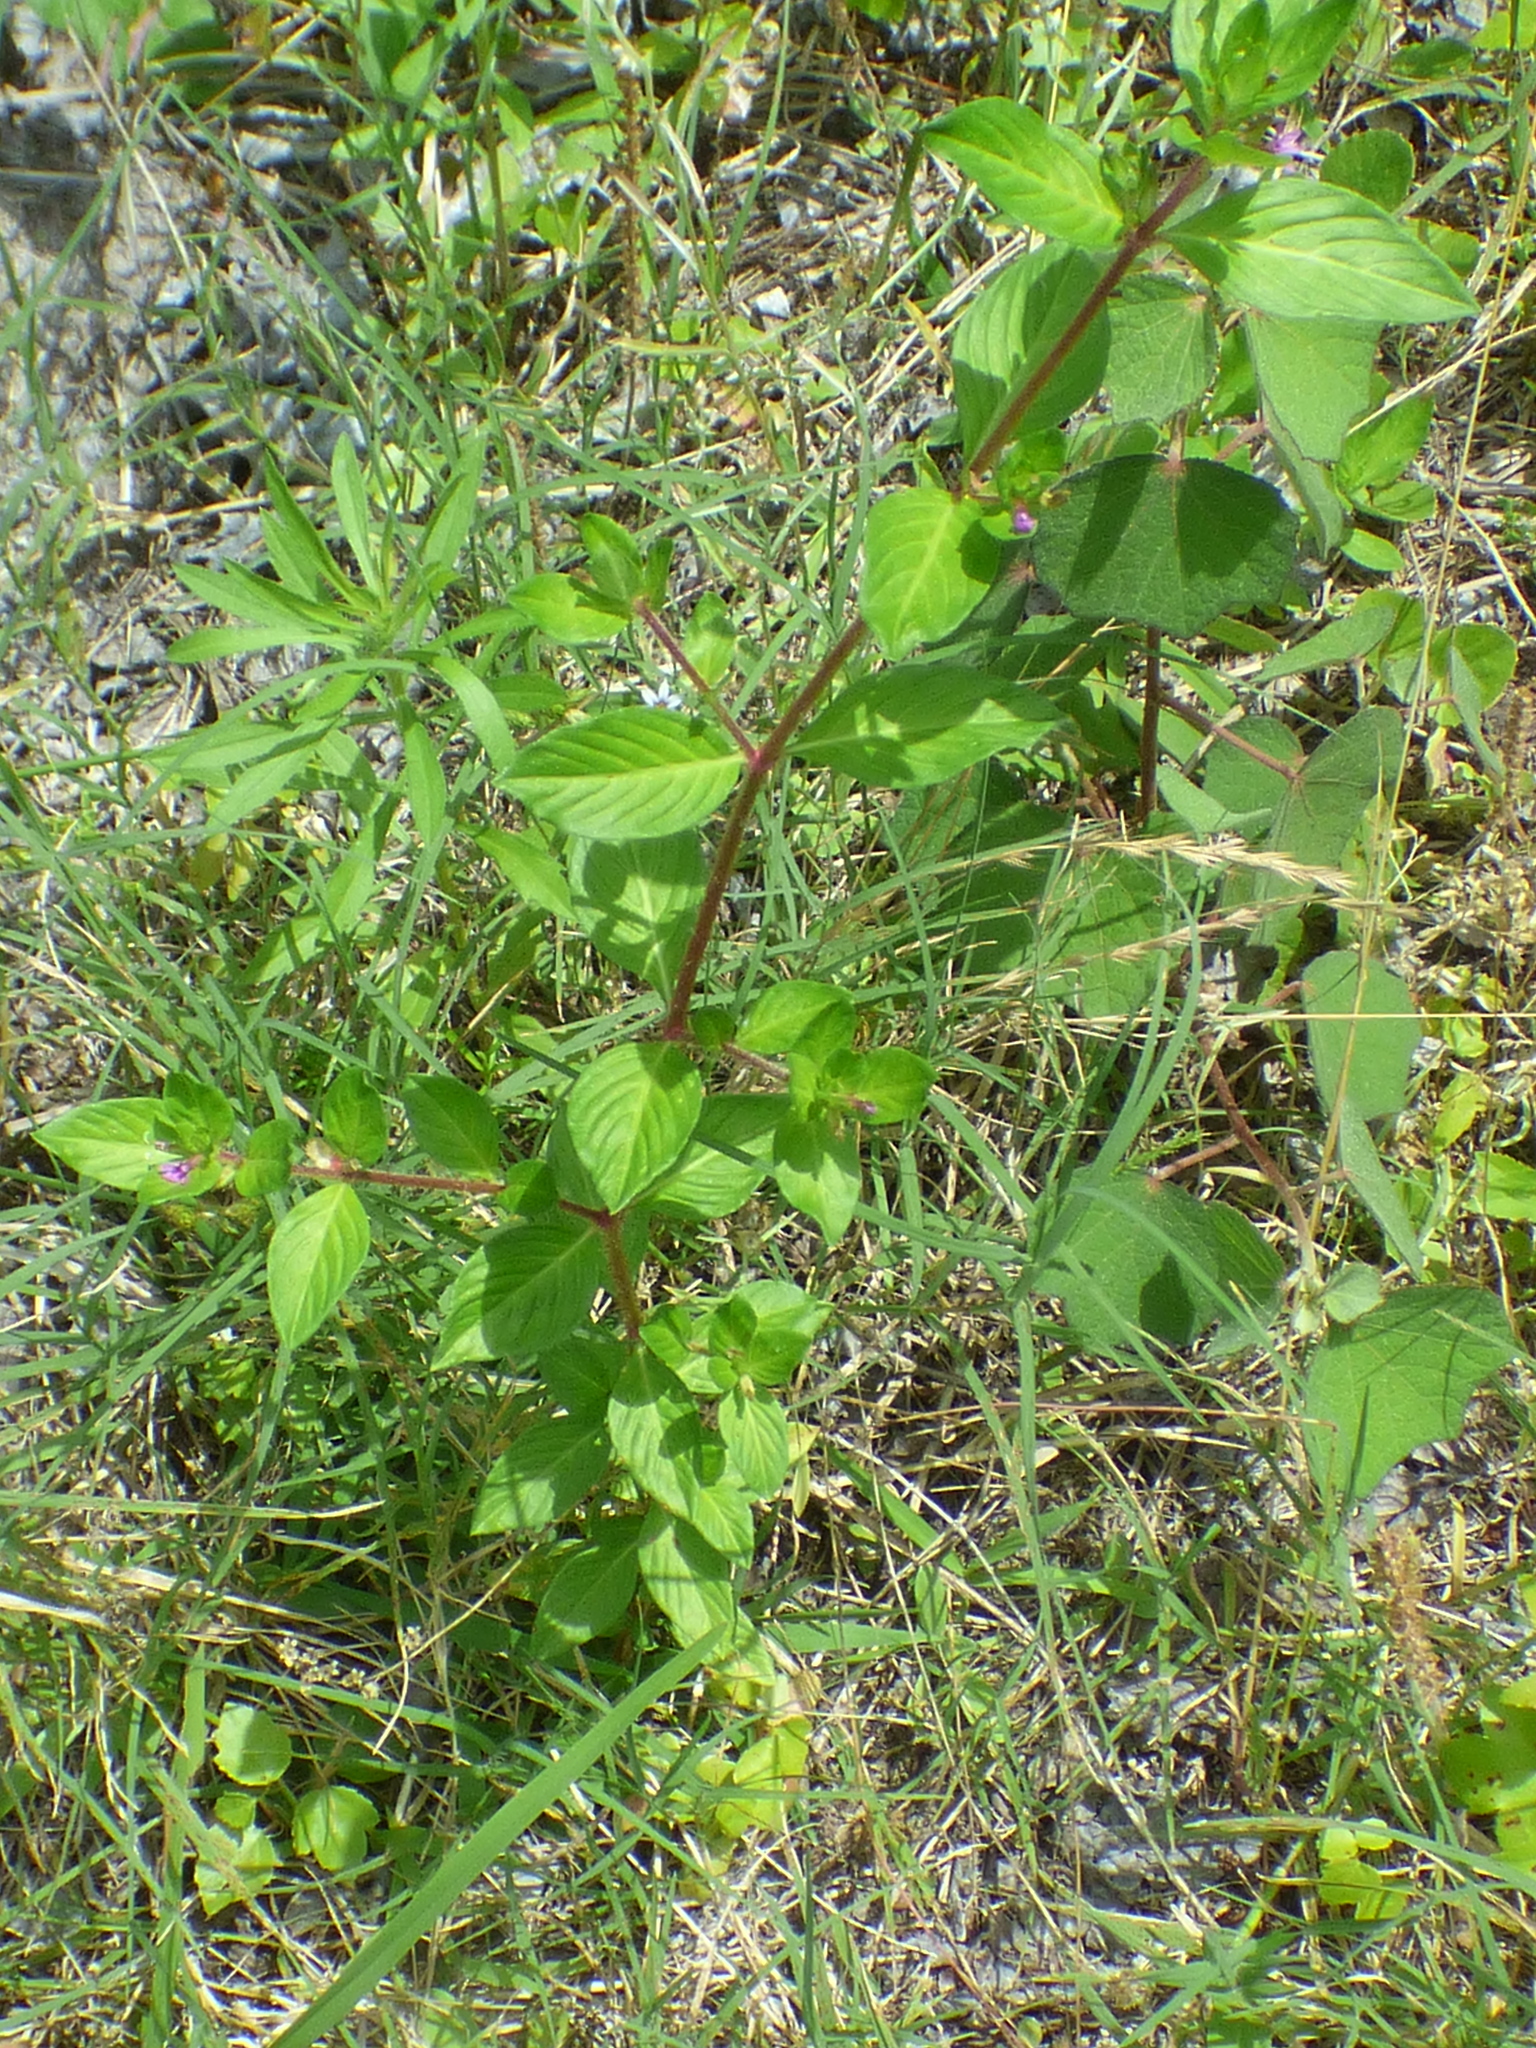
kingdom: Plantae
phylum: Tracheophyta
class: Magnoliopsida
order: Myrtales
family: Lythraceae
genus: Cuphea
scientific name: Cuphea carthagenensis
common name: Colombian waxweed
